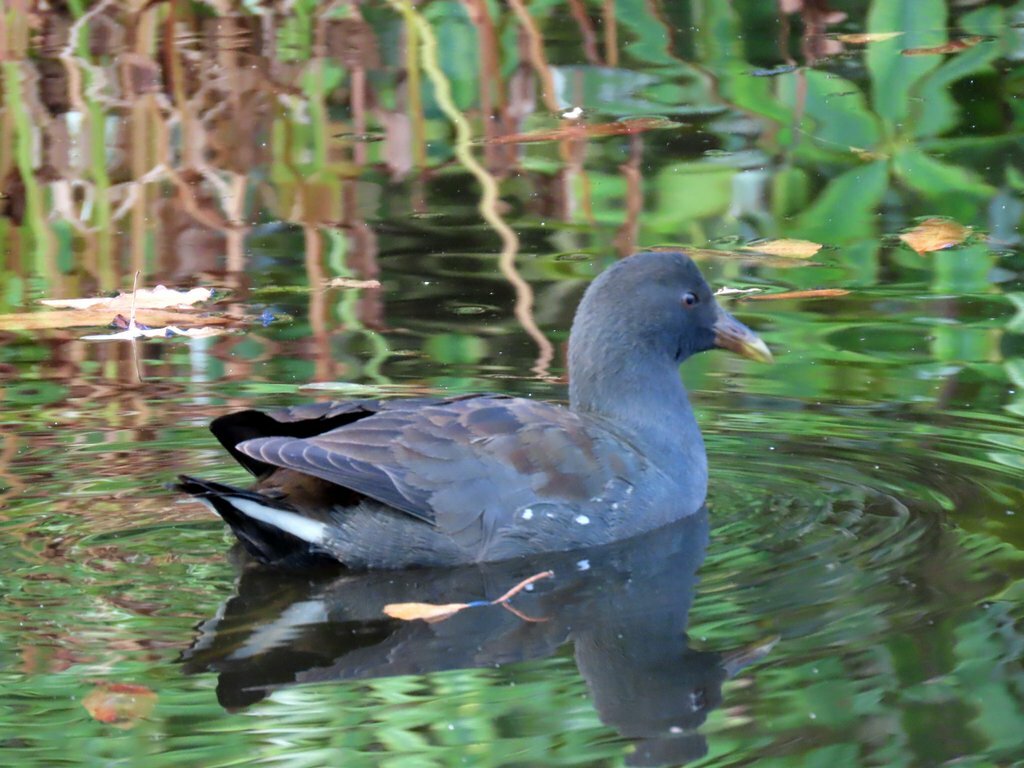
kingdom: Animalia
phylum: Chordata
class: Aves
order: Gruiformes
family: Rallidae
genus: Gallinula
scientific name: Gallinula tenebrosa
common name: Dusky moorhen
